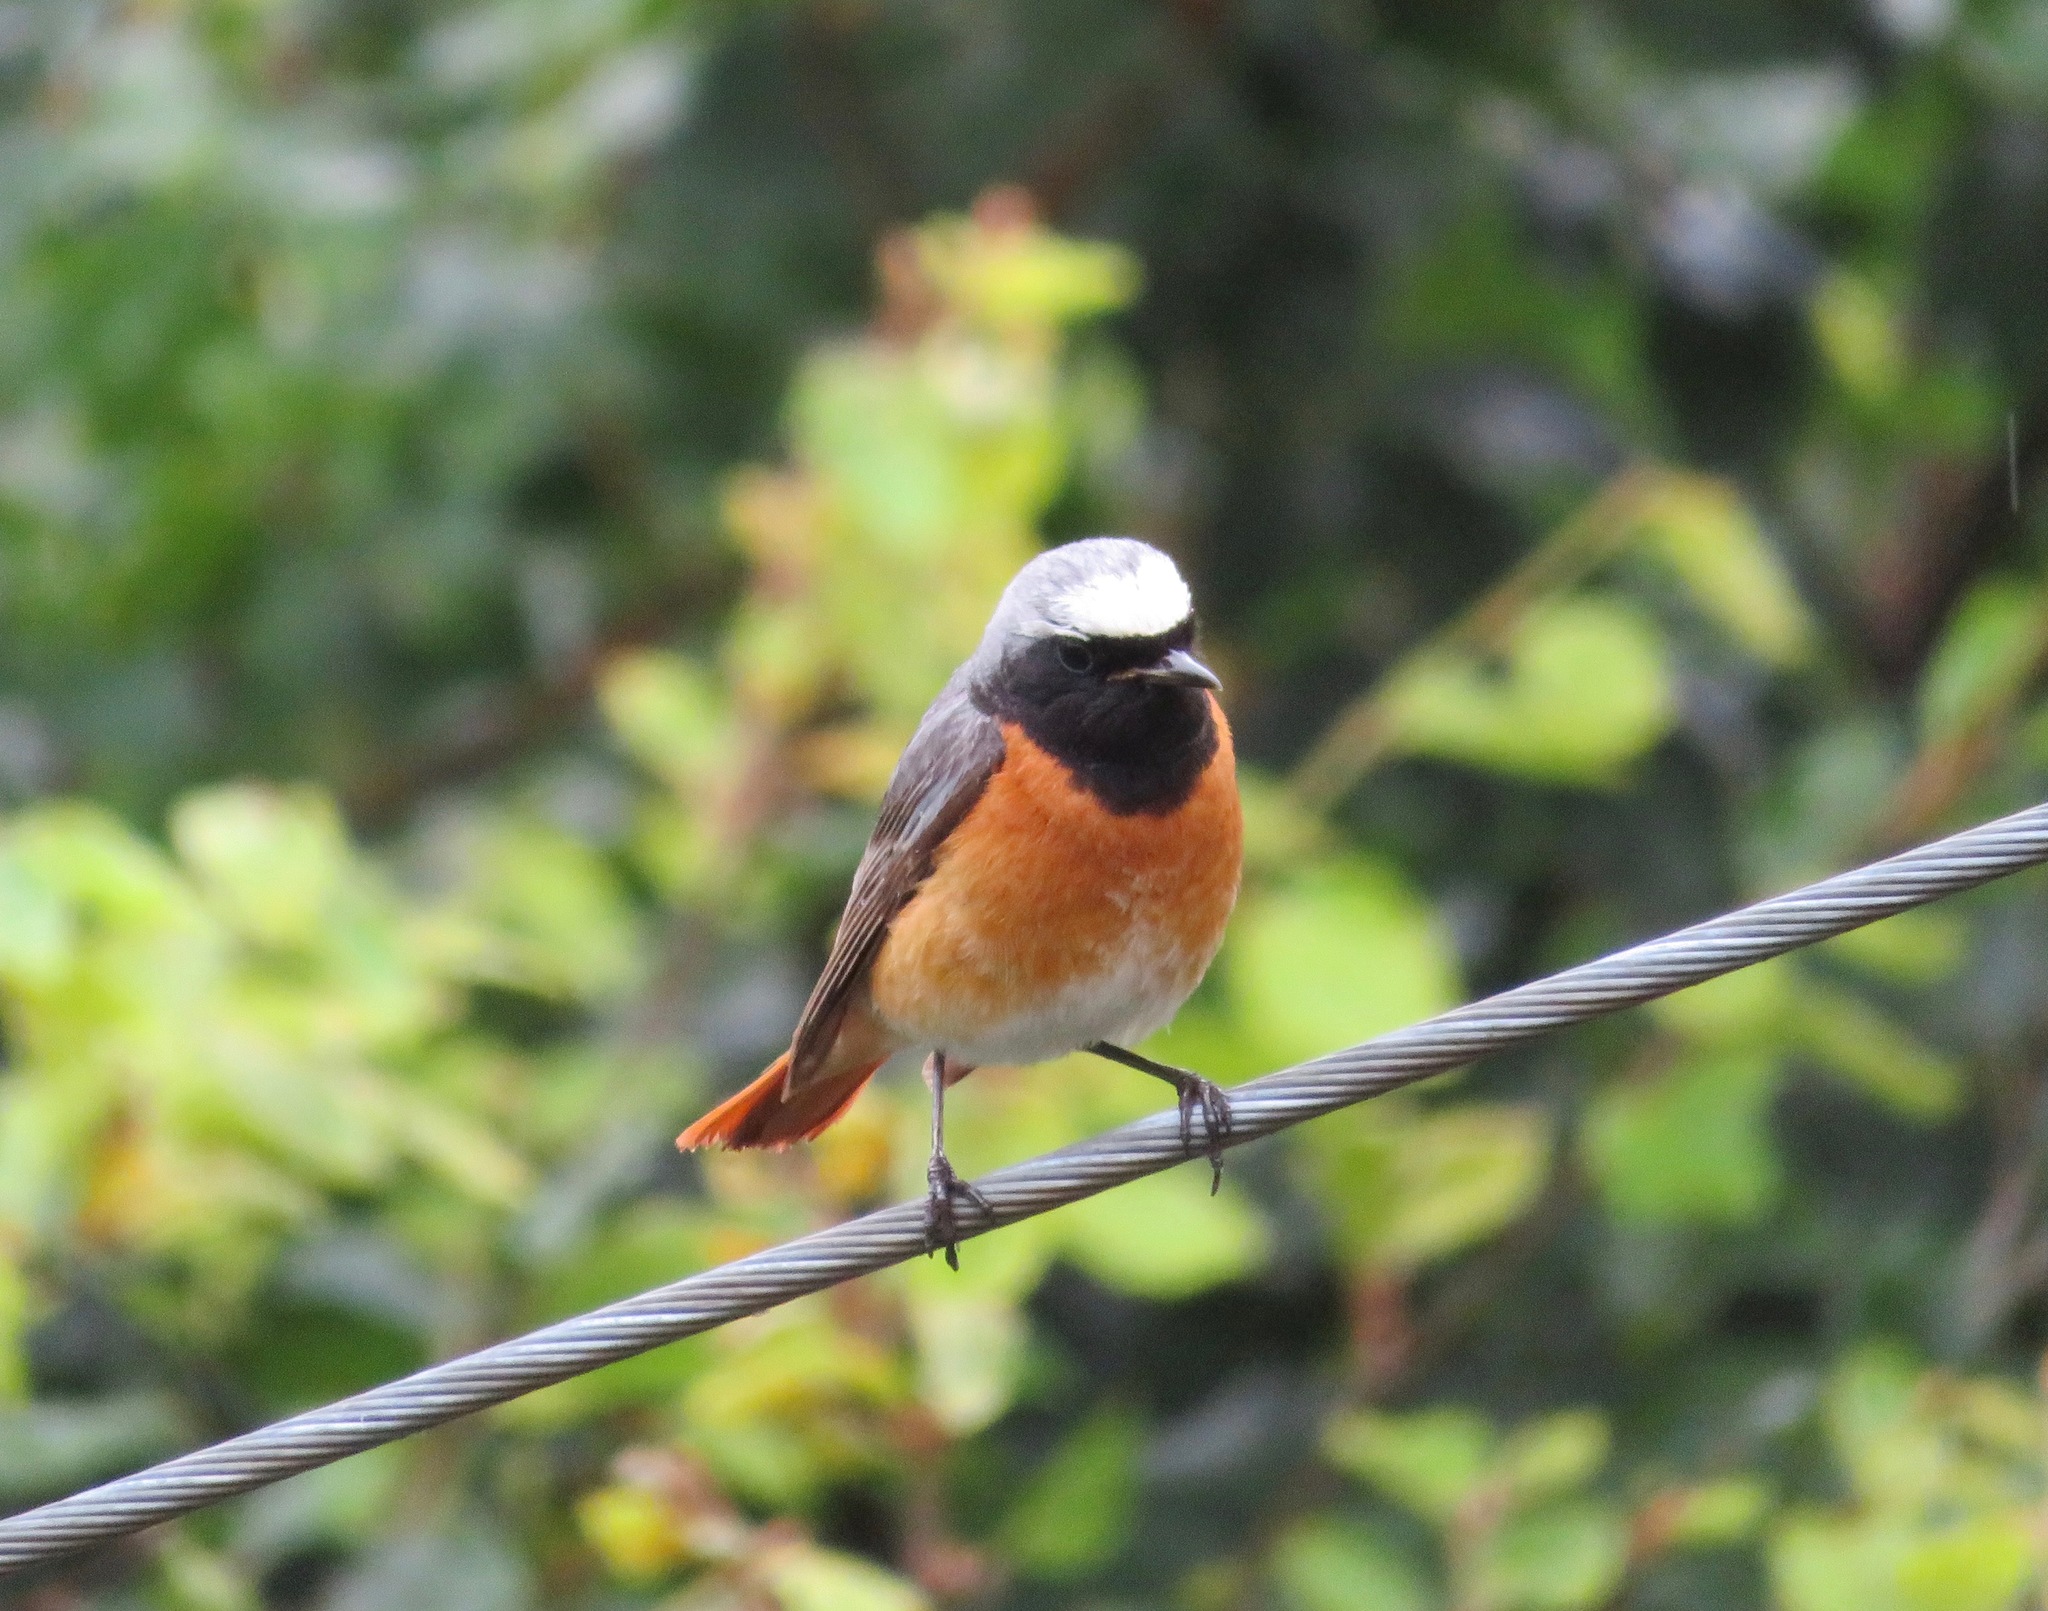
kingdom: Animalia
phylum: Chordata
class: Aves
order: Passeriformes
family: Muscicapidae
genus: Phoenicurus
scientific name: Phoenicurus phoenicurus
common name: Common redstart
